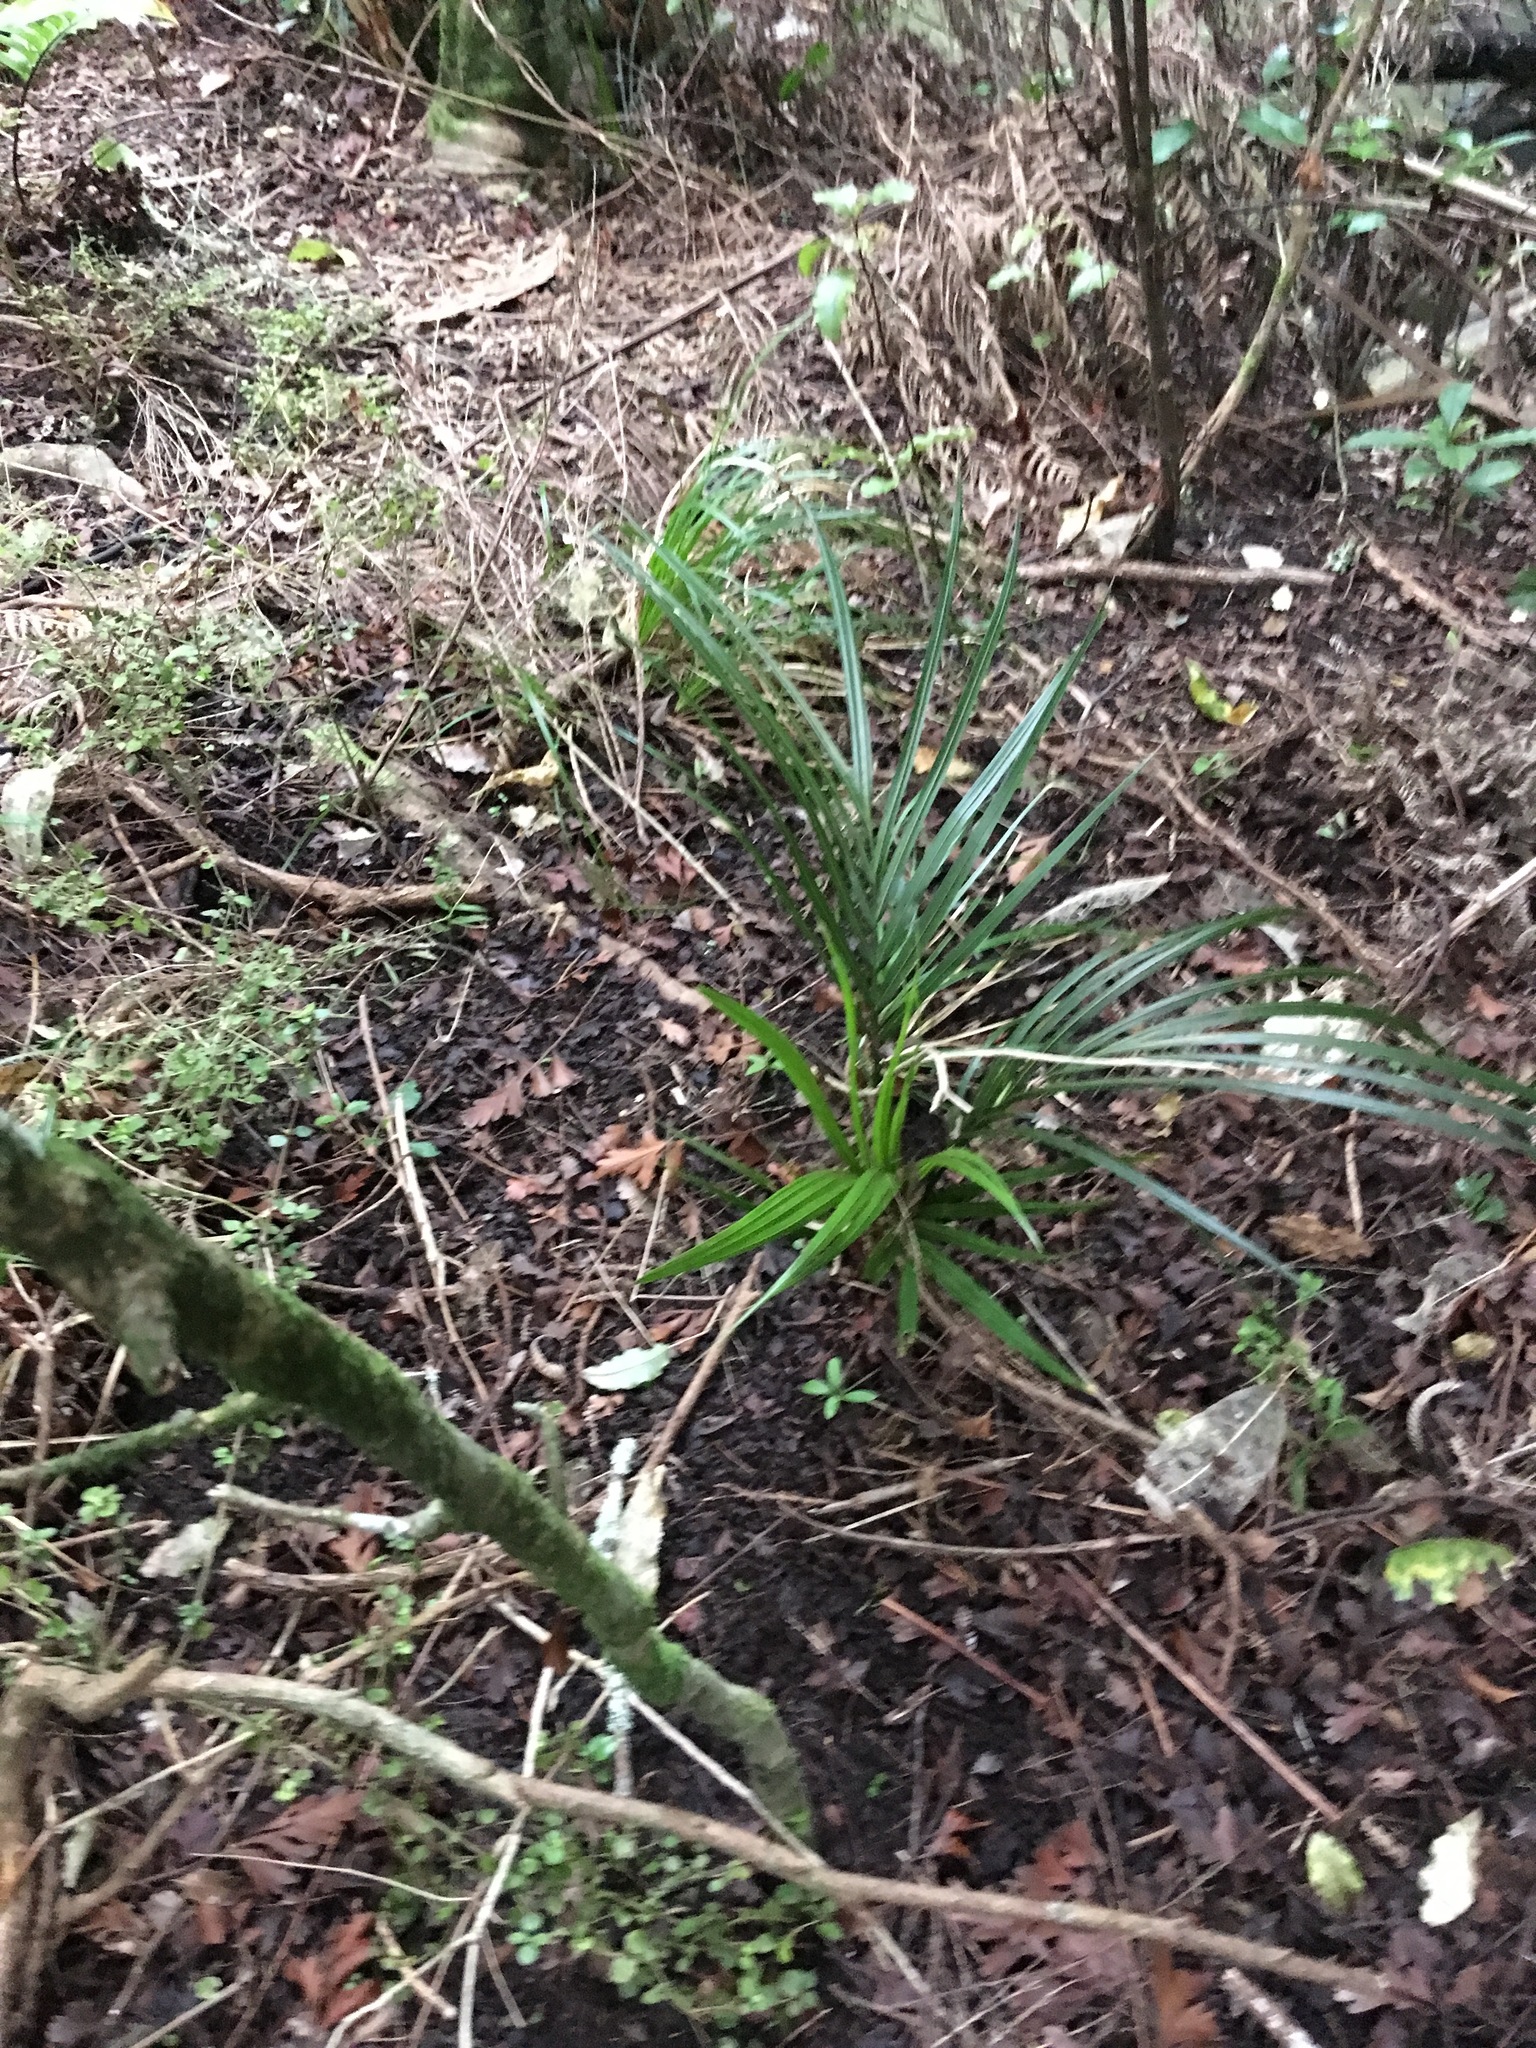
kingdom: Plantae
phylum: Tracheophyta
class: Liliopsida
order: Arecales
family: Arecaceae
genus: Rhopalostylis
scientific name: Rhopalostylis sapida
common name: Feather-duster palm
